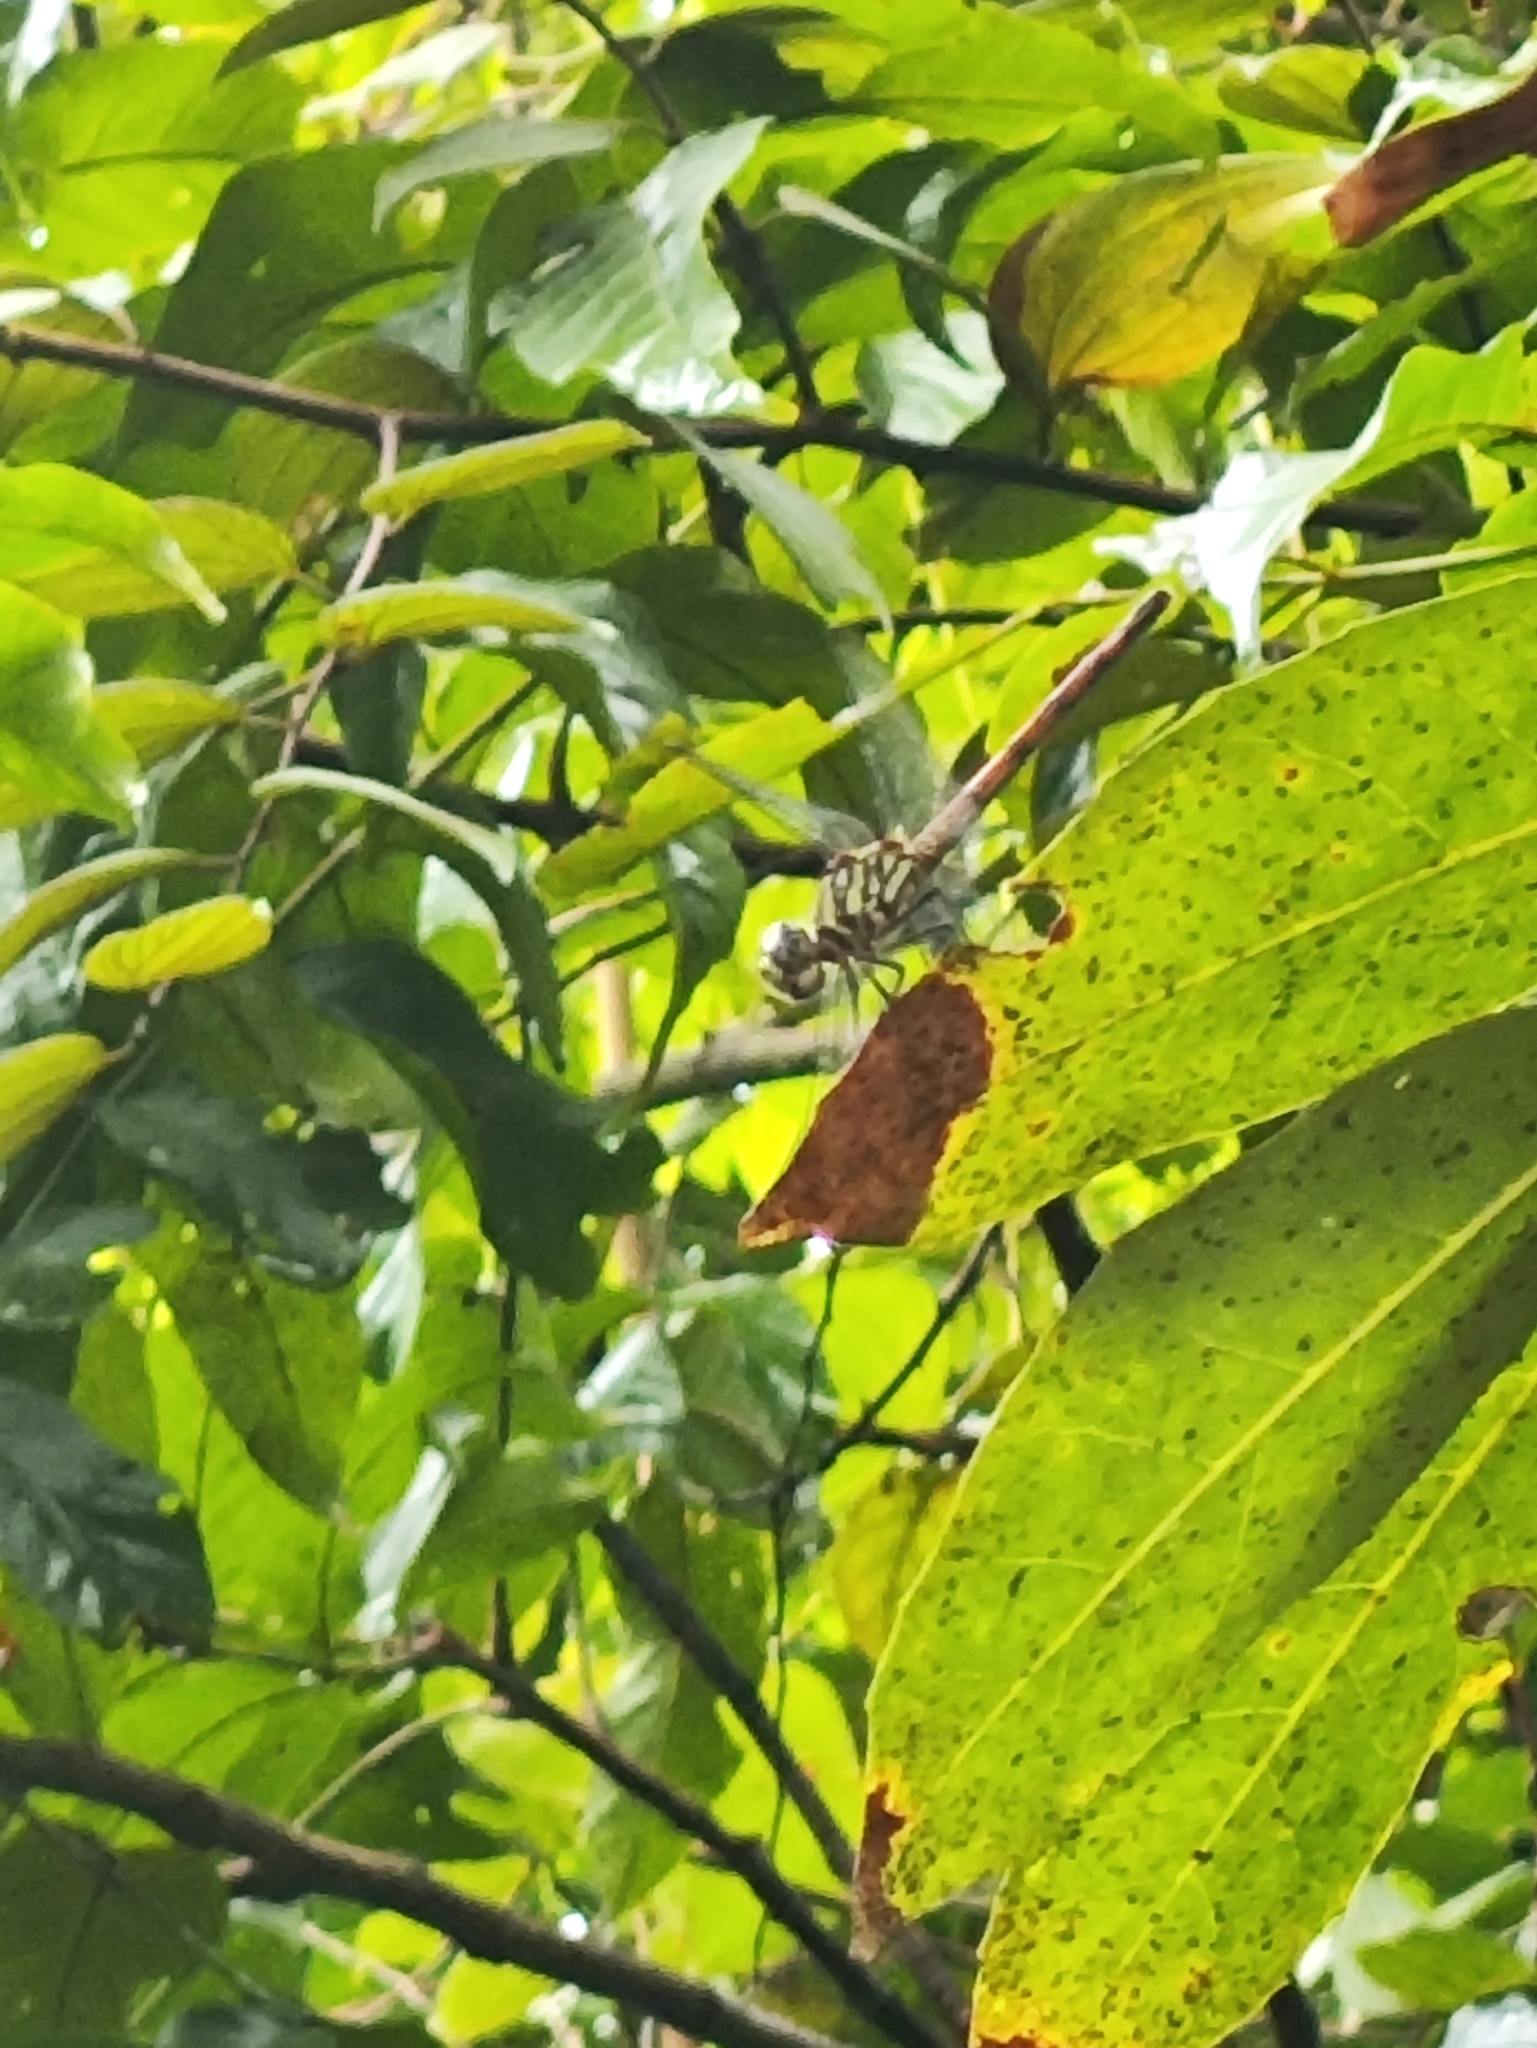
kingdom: Animalia
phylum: Arthropoda
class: Insecta
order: Odonata
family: Libellulidae
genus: Lathrecista
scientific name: Lathrecista asiatica
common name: Scarlet grenadier
